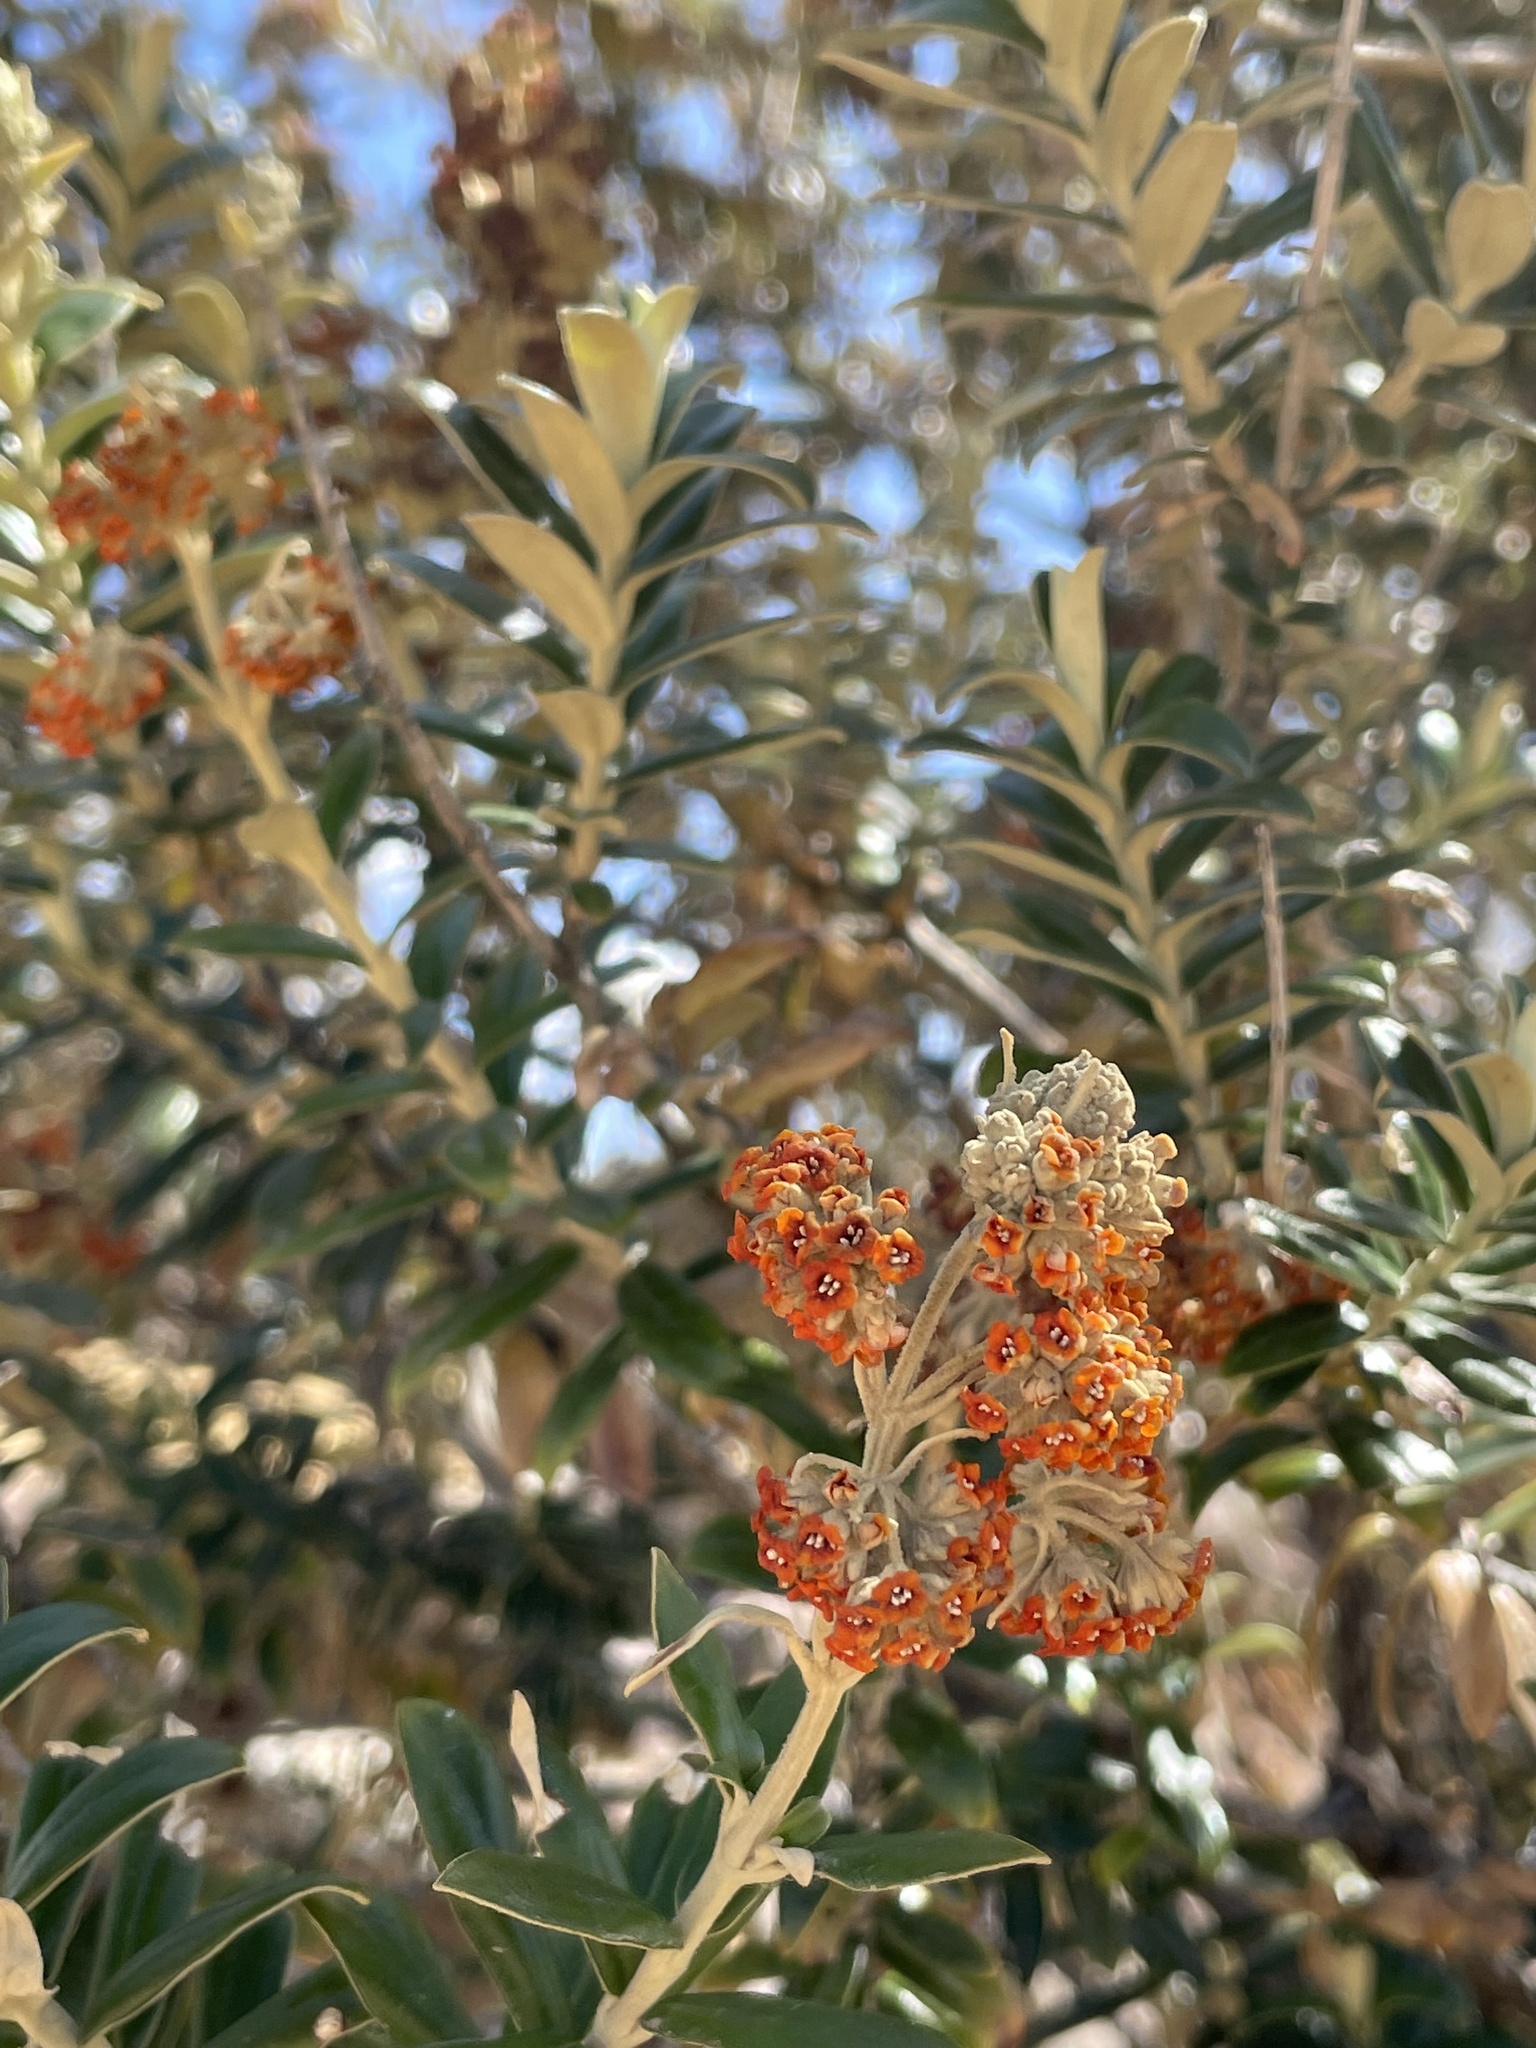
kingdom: Plantae
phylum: Tracheophyta
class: Magnoliopsida
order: Lamiales
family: Scrophulariaceae
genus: Buddleja
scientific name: Buddleja coriacea
